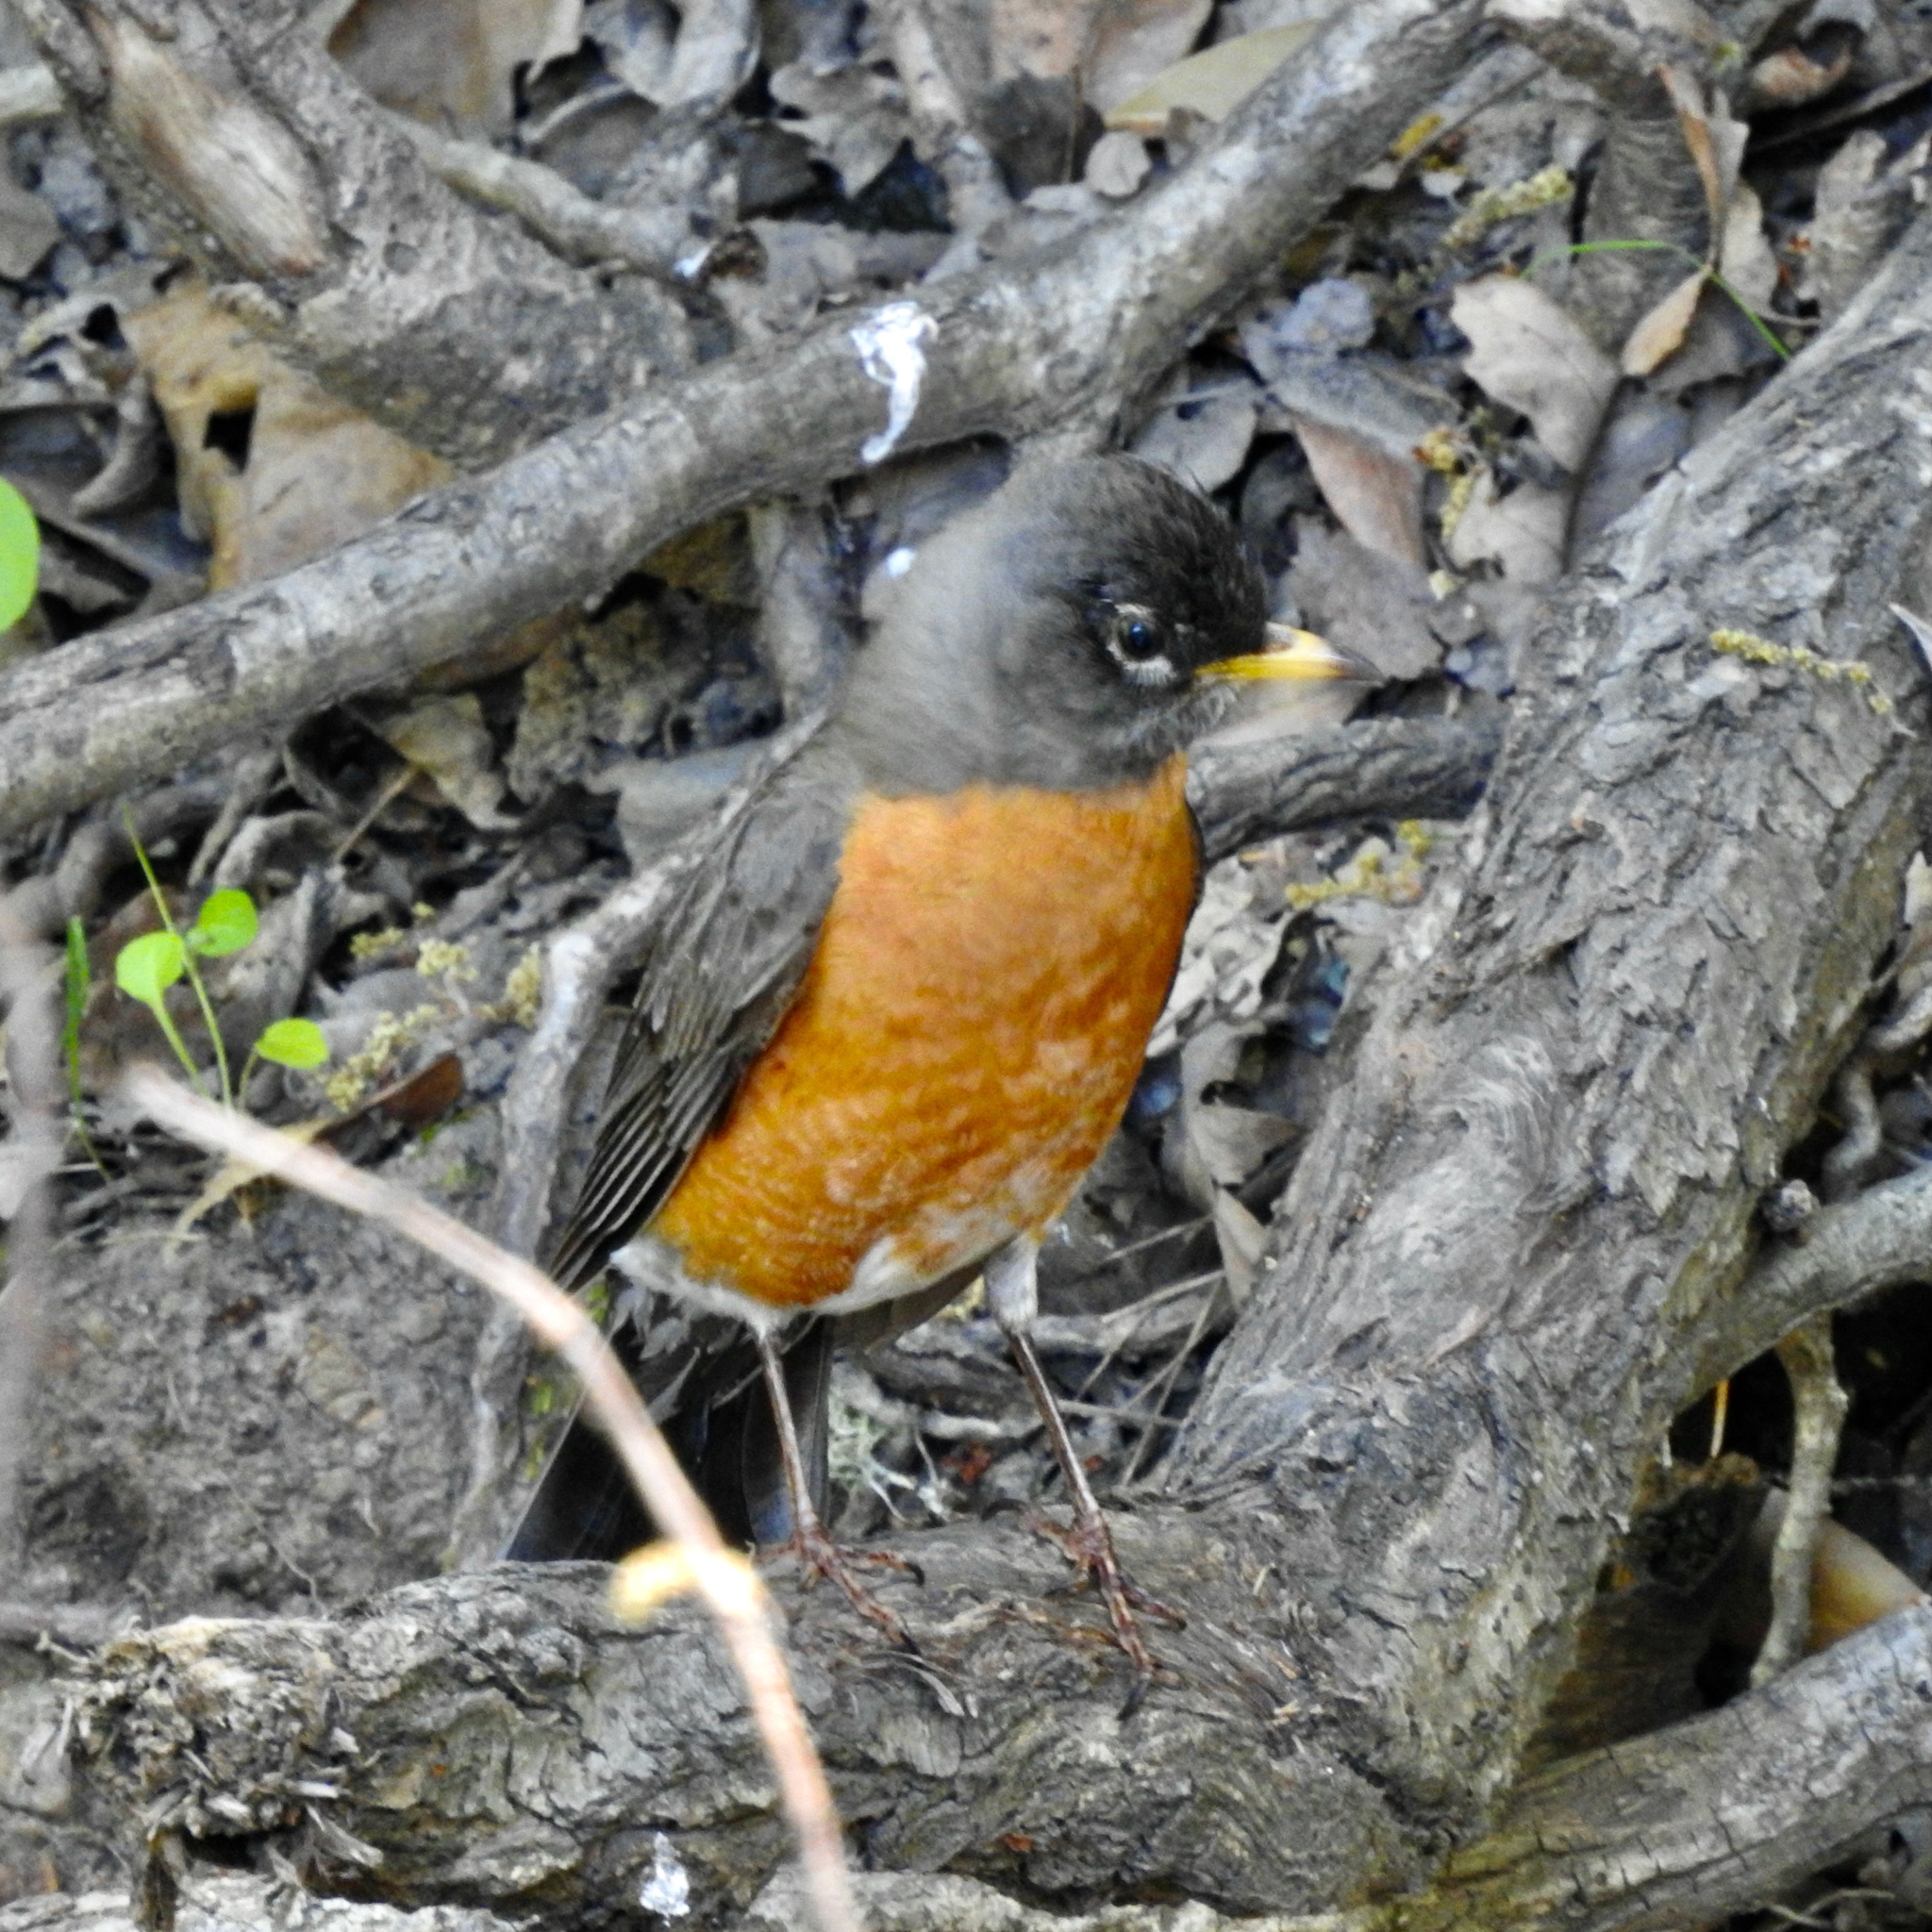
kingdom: Animalia
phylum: Chordata
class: Aves
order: Passeriformes
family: Turdidae
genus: Turdus
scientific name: Turdus migratorius
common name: American robin
